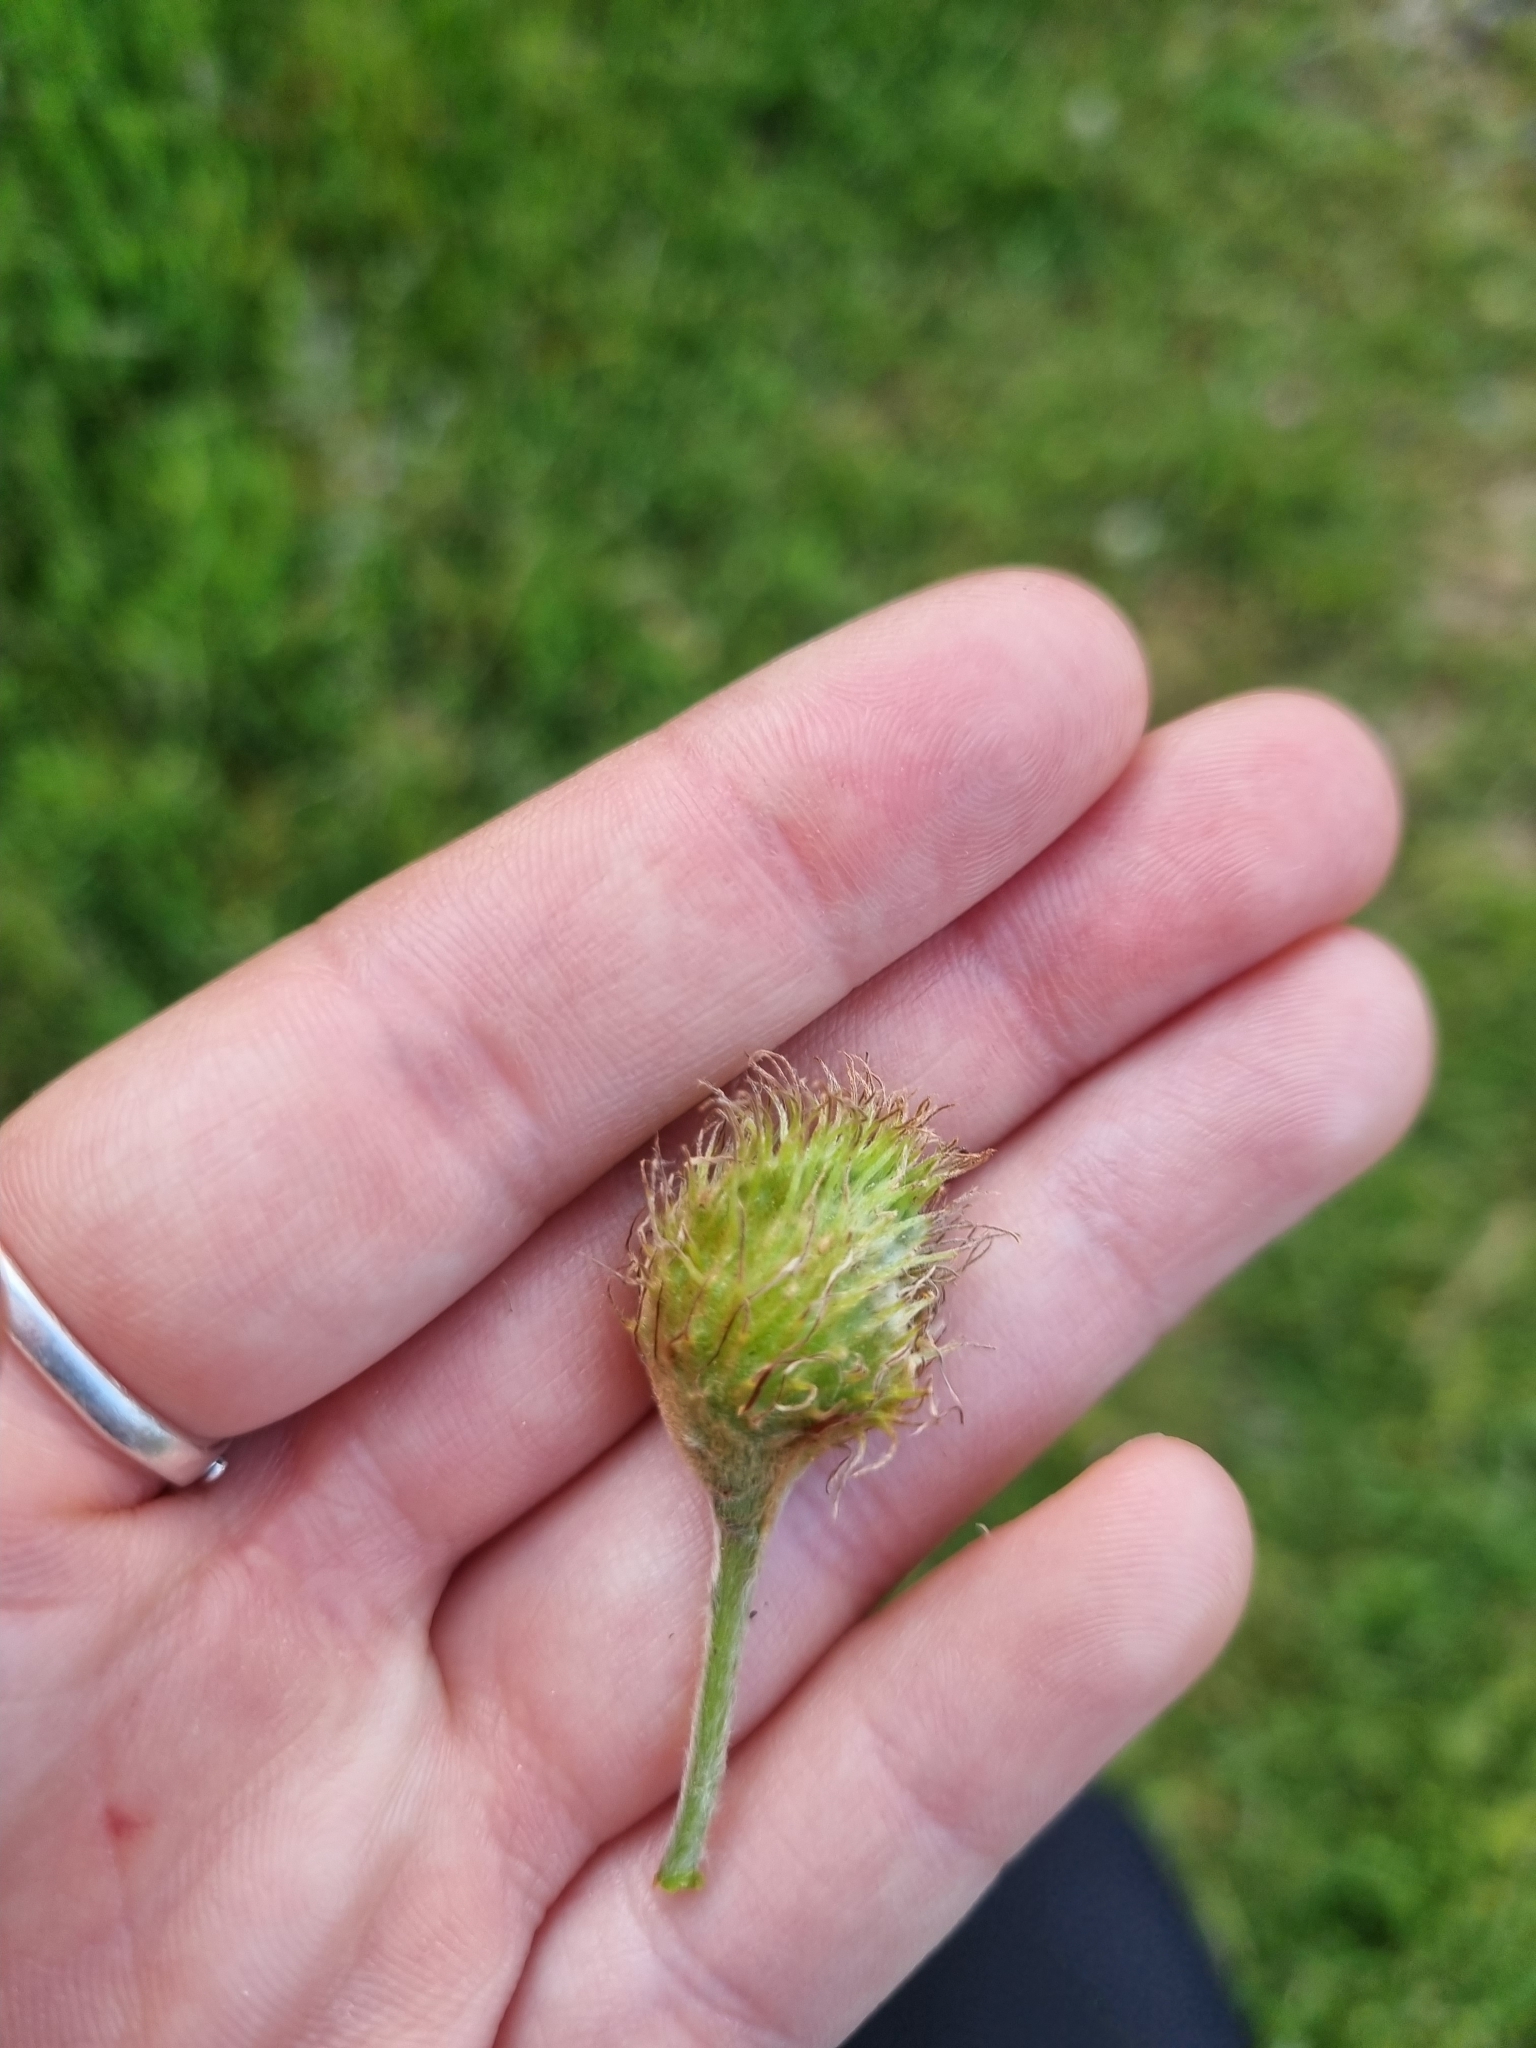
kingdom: Plantae
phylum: Tracheophyta
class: Magnoliopsida
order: Fagales
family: Fagaceae
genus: Fagus
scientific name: Fagus sylvatica
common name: Beech
